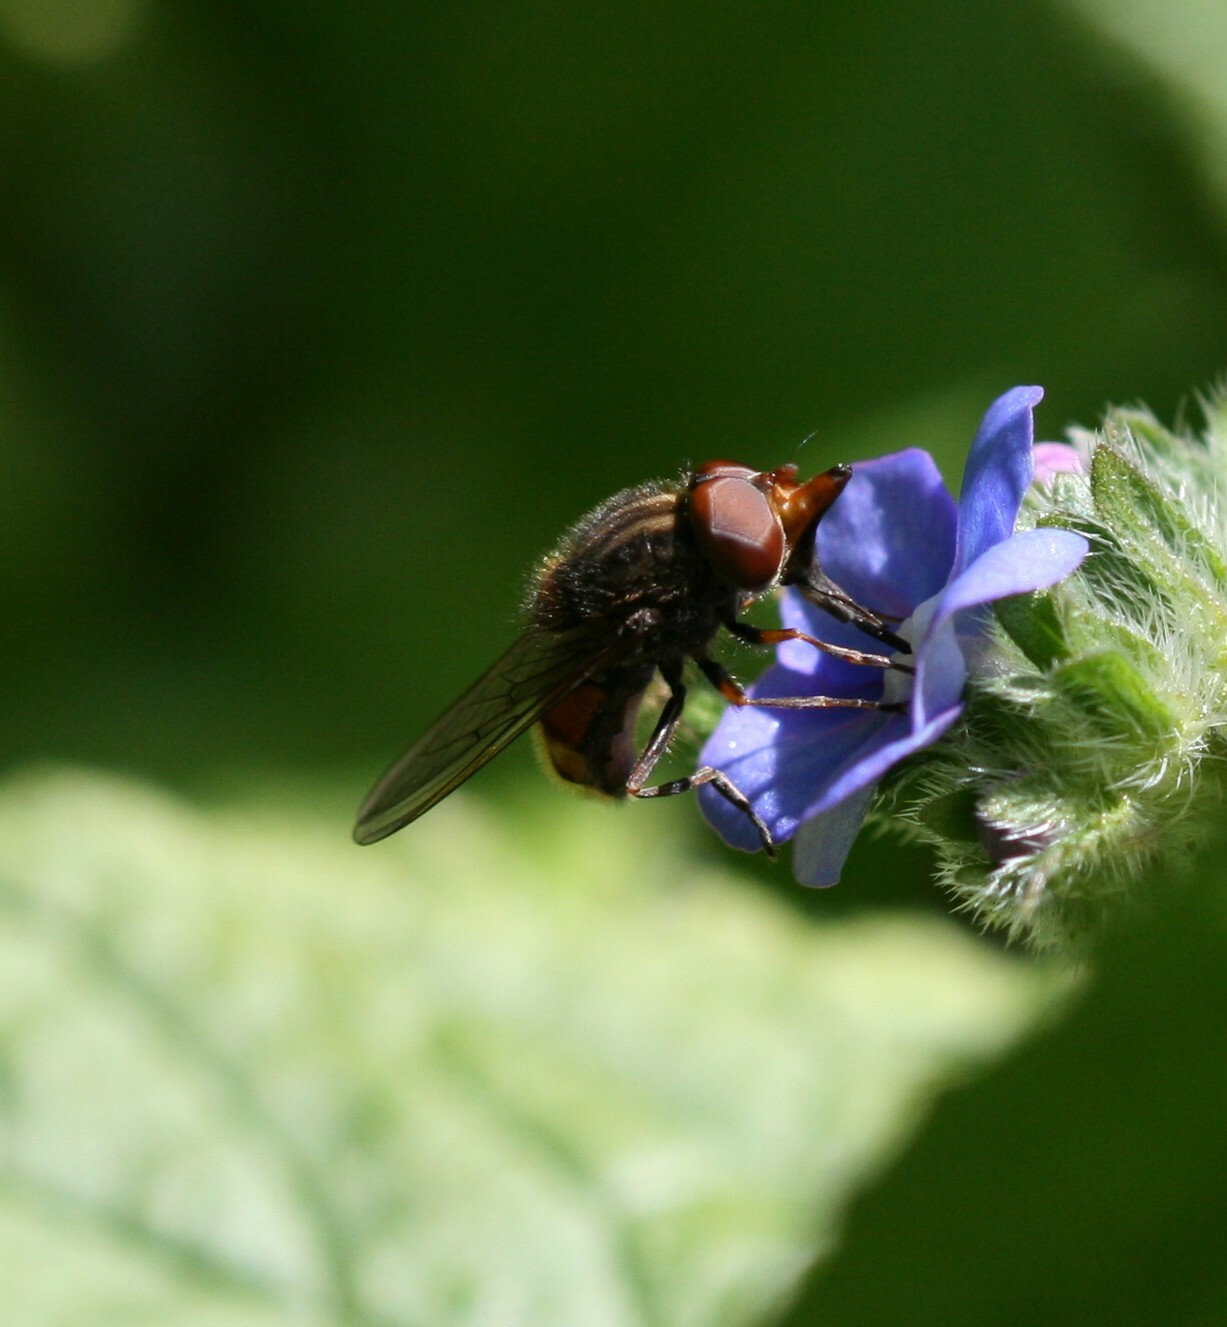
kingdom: Animalia
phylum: Arthropoda
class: Insecta
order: Diptera
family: Syrphidae
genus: Rhingia
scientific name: Rhingia campestris
